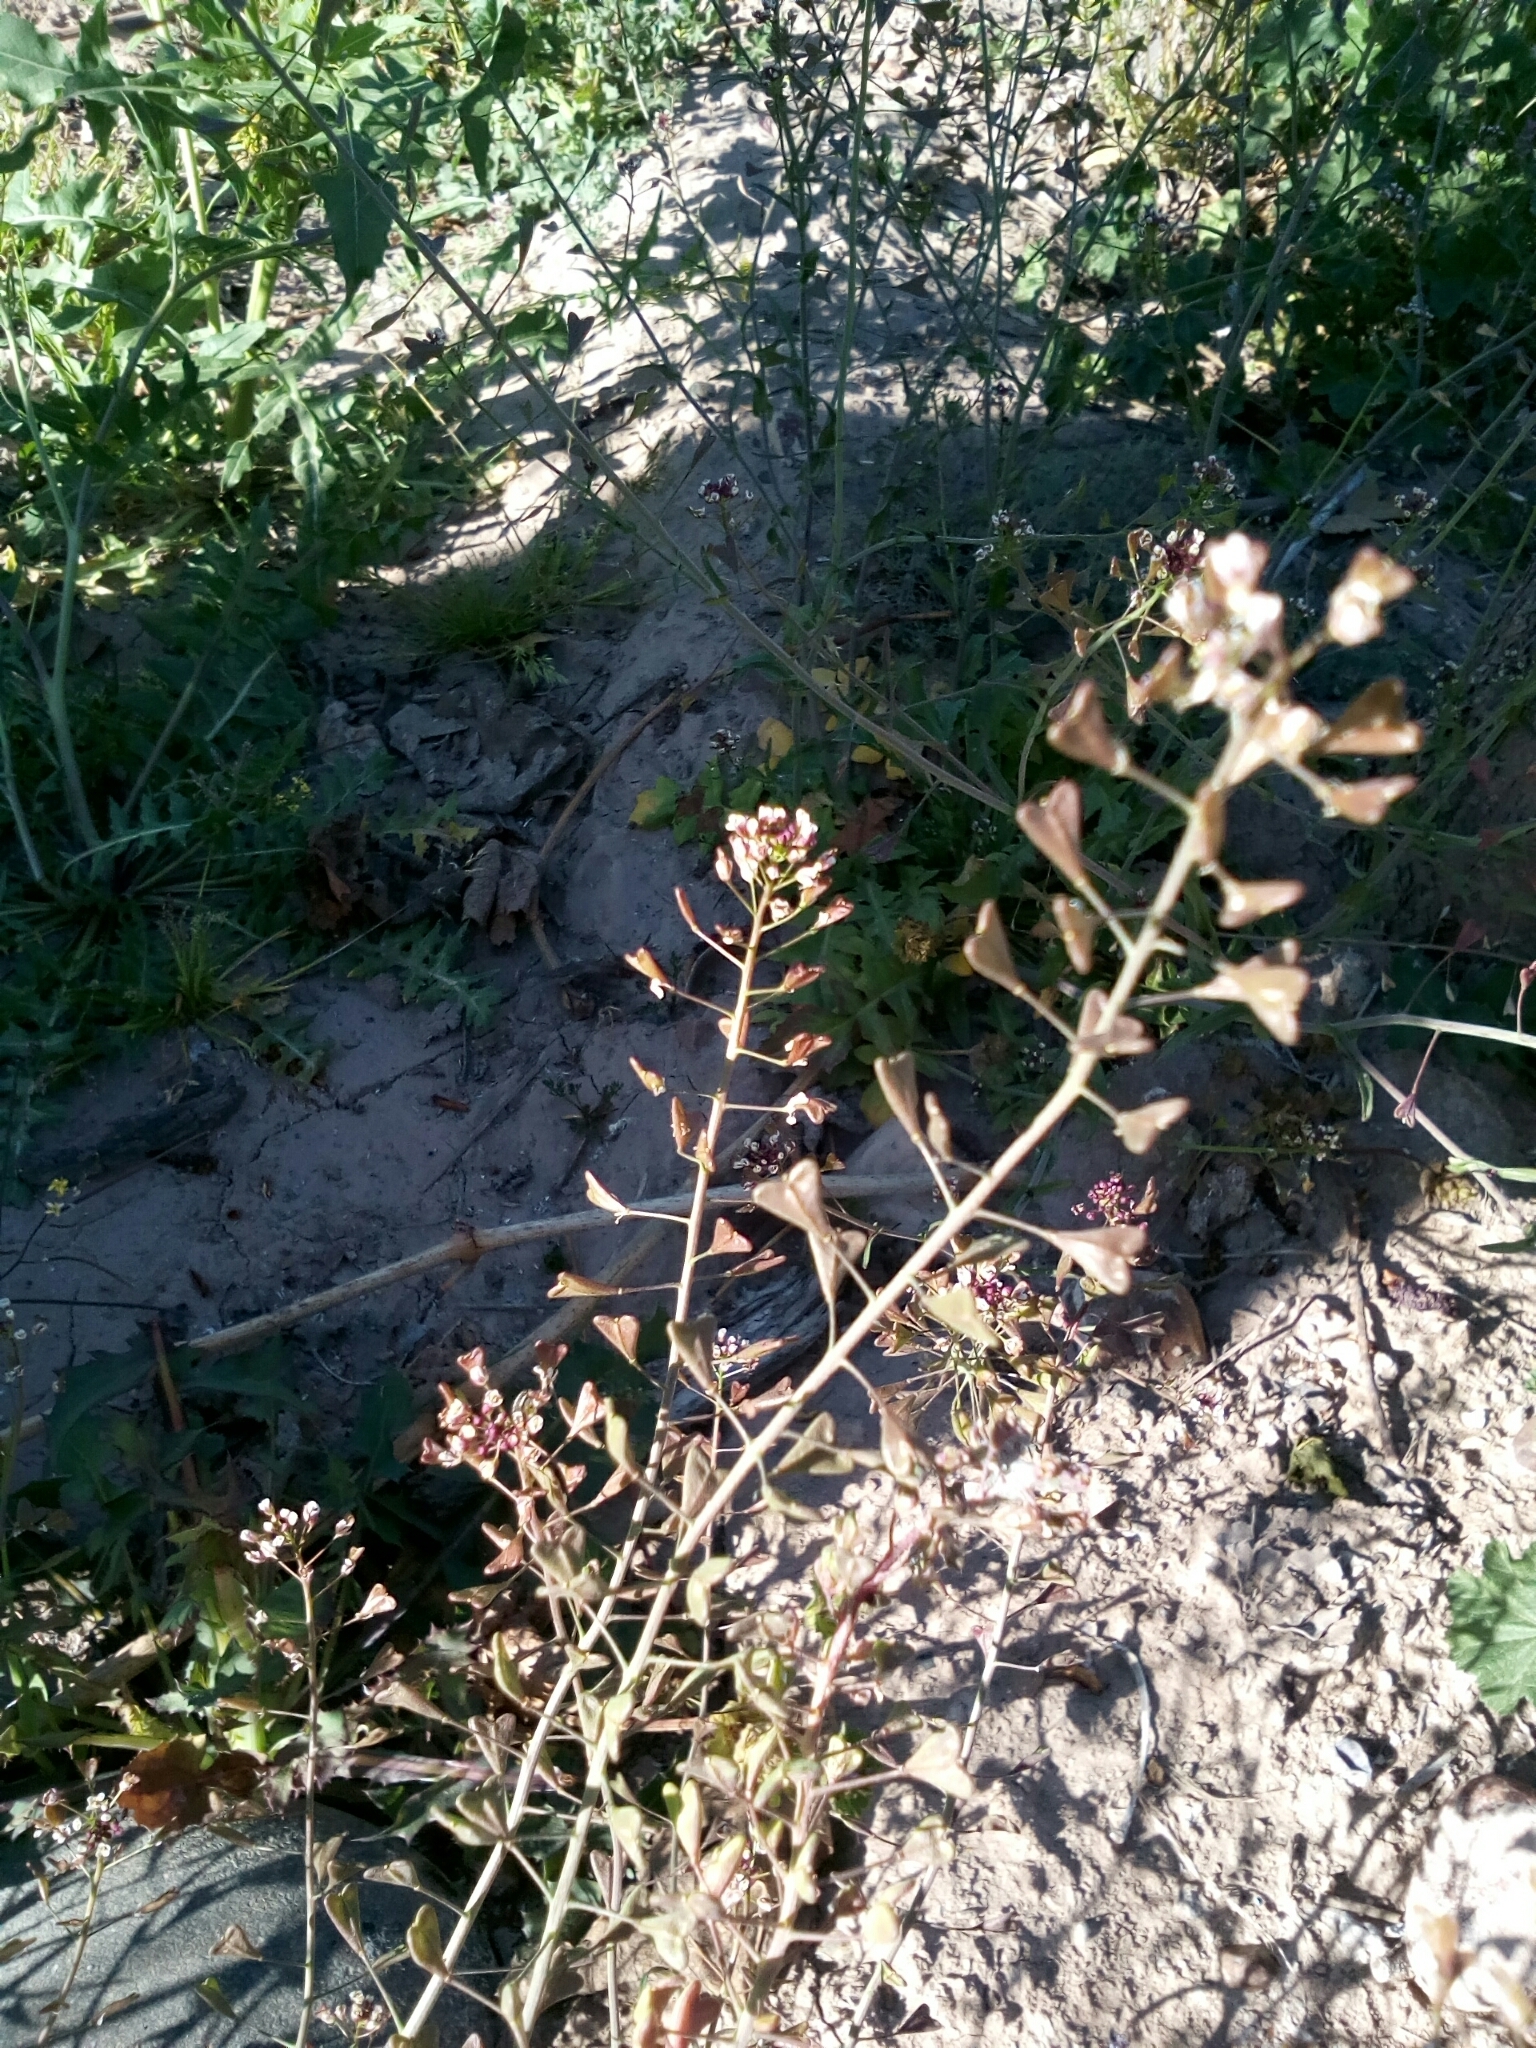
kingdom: Plantae
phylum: Tracheophyta
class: Magnoliopsida
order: Brassicales
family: Brassicaceae
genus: Capsella
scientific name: Capsella bursa-pastoris
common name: Shepherd's purse
